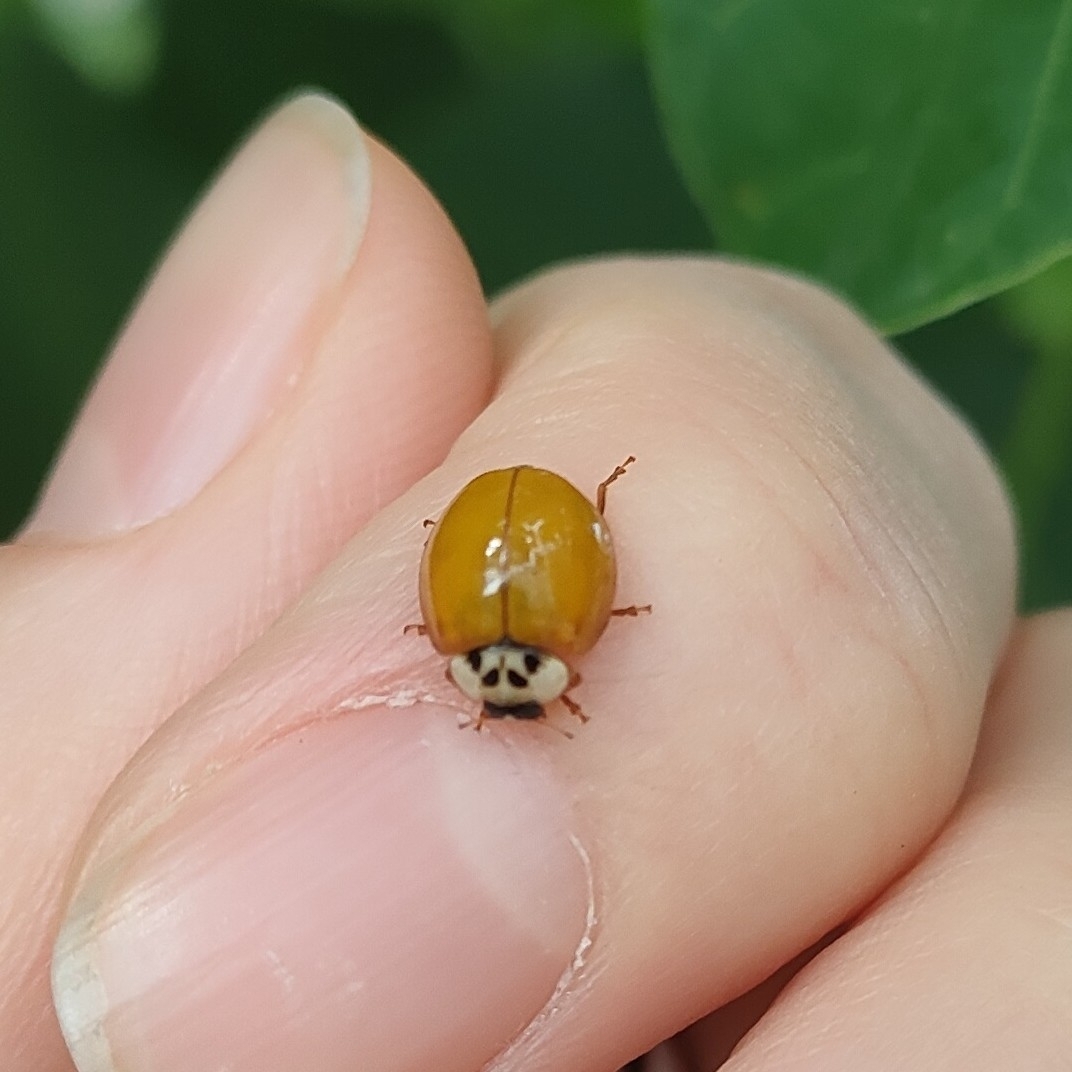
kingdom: Animalia
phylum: Arthropoda
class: Insecta
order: Coleoptera
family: Coccinellidae
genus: Harmonia
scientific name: Harmonia axyridis
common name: Harlequin ladybird
